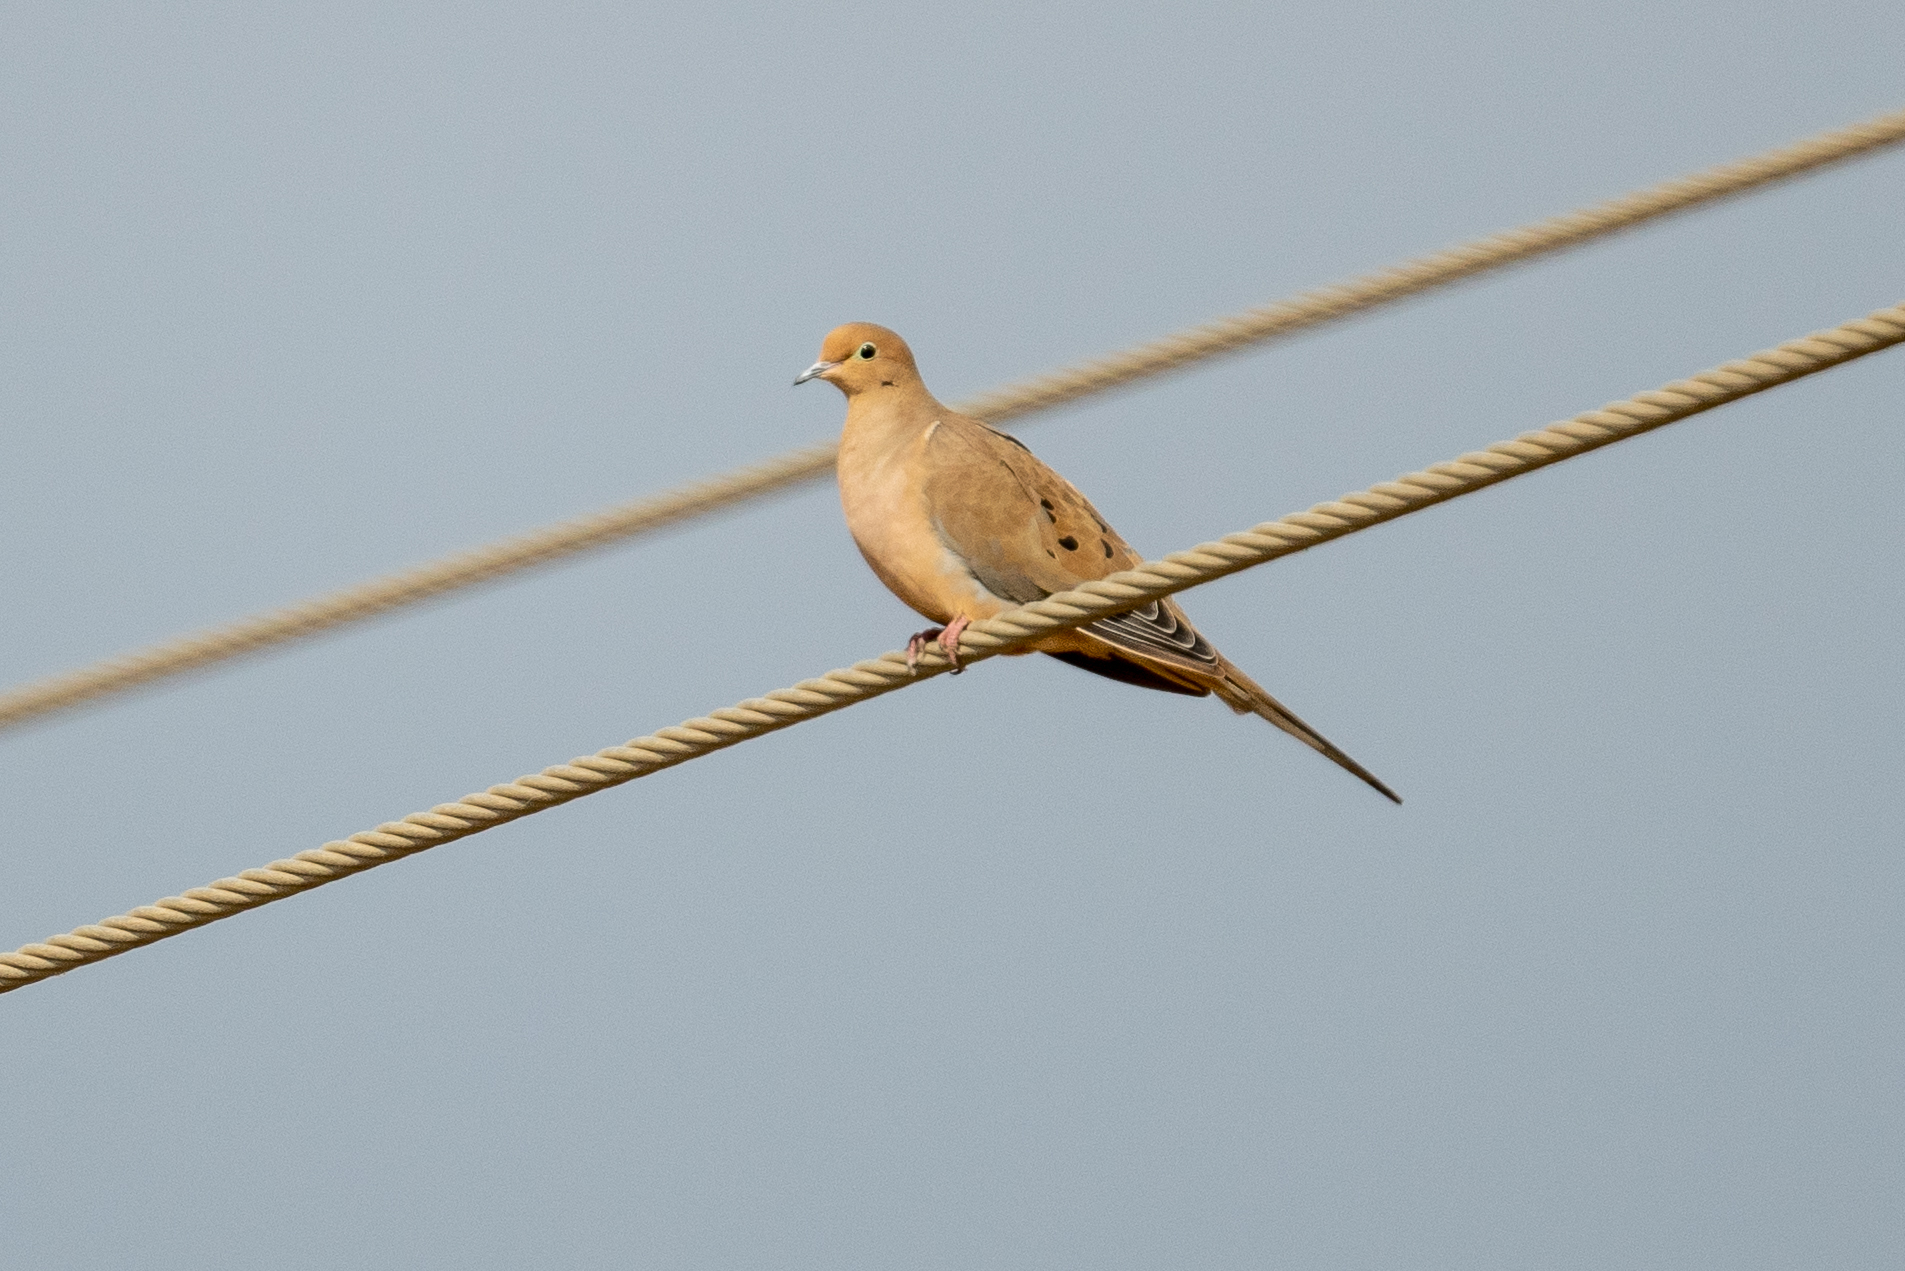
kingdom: Animalia
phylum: Chordata
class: Aves
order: Columbiformes
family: Columbidae
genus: Zenaida
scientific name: Zenaida macroura
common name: Mourning dove
